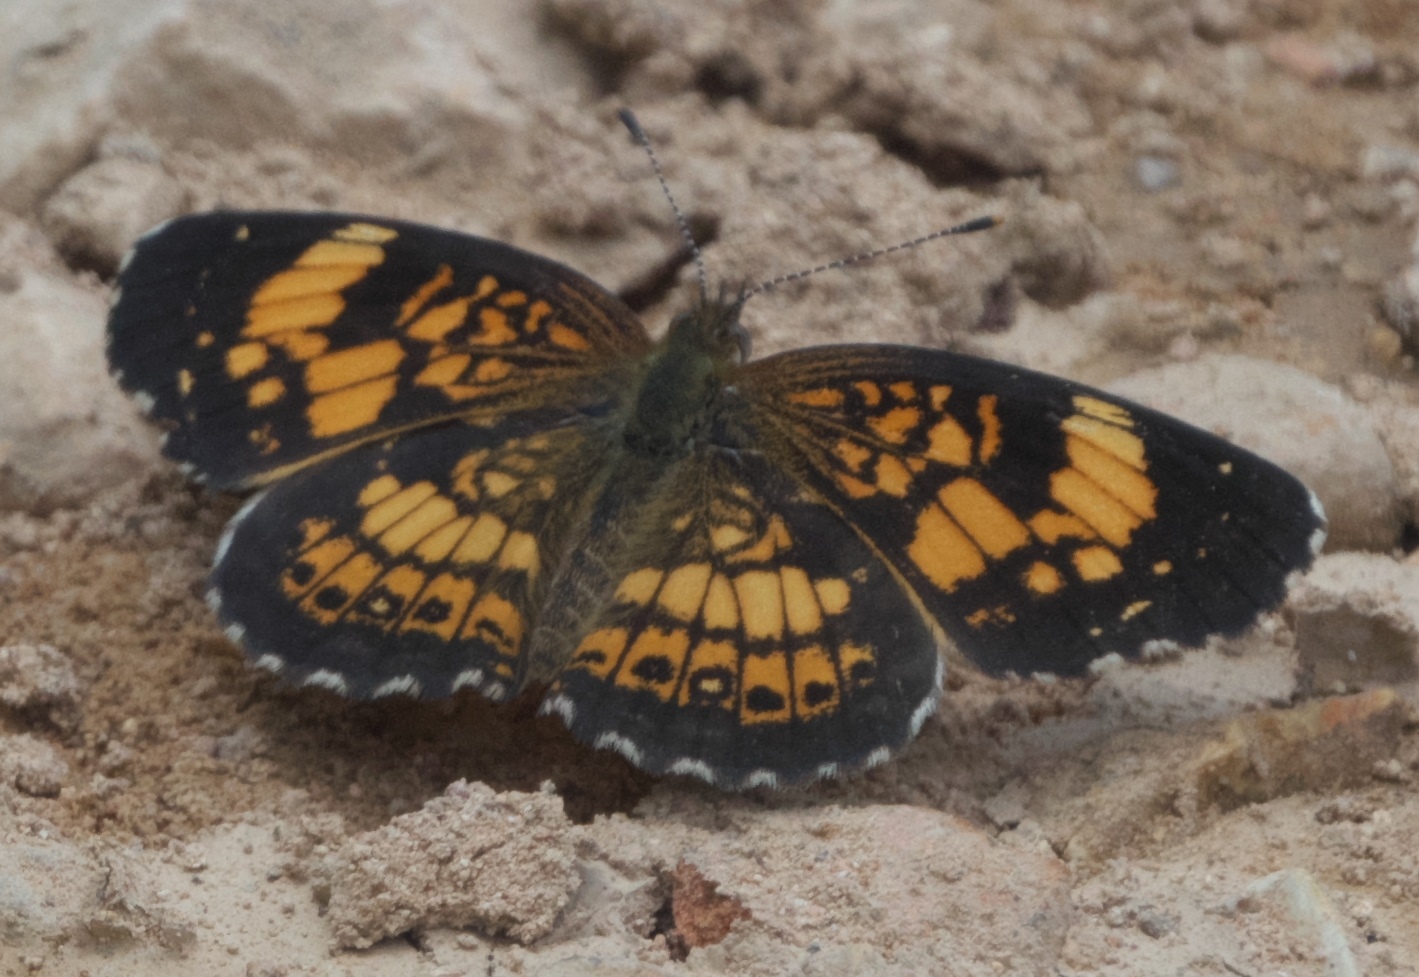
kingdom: Animalia
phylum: Arthropoda
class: Insecta
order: Lepidoptera
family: Nymphalidae
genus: Chlosyne
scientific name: Chlosyne nycteis
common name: Silvery checkerspot
